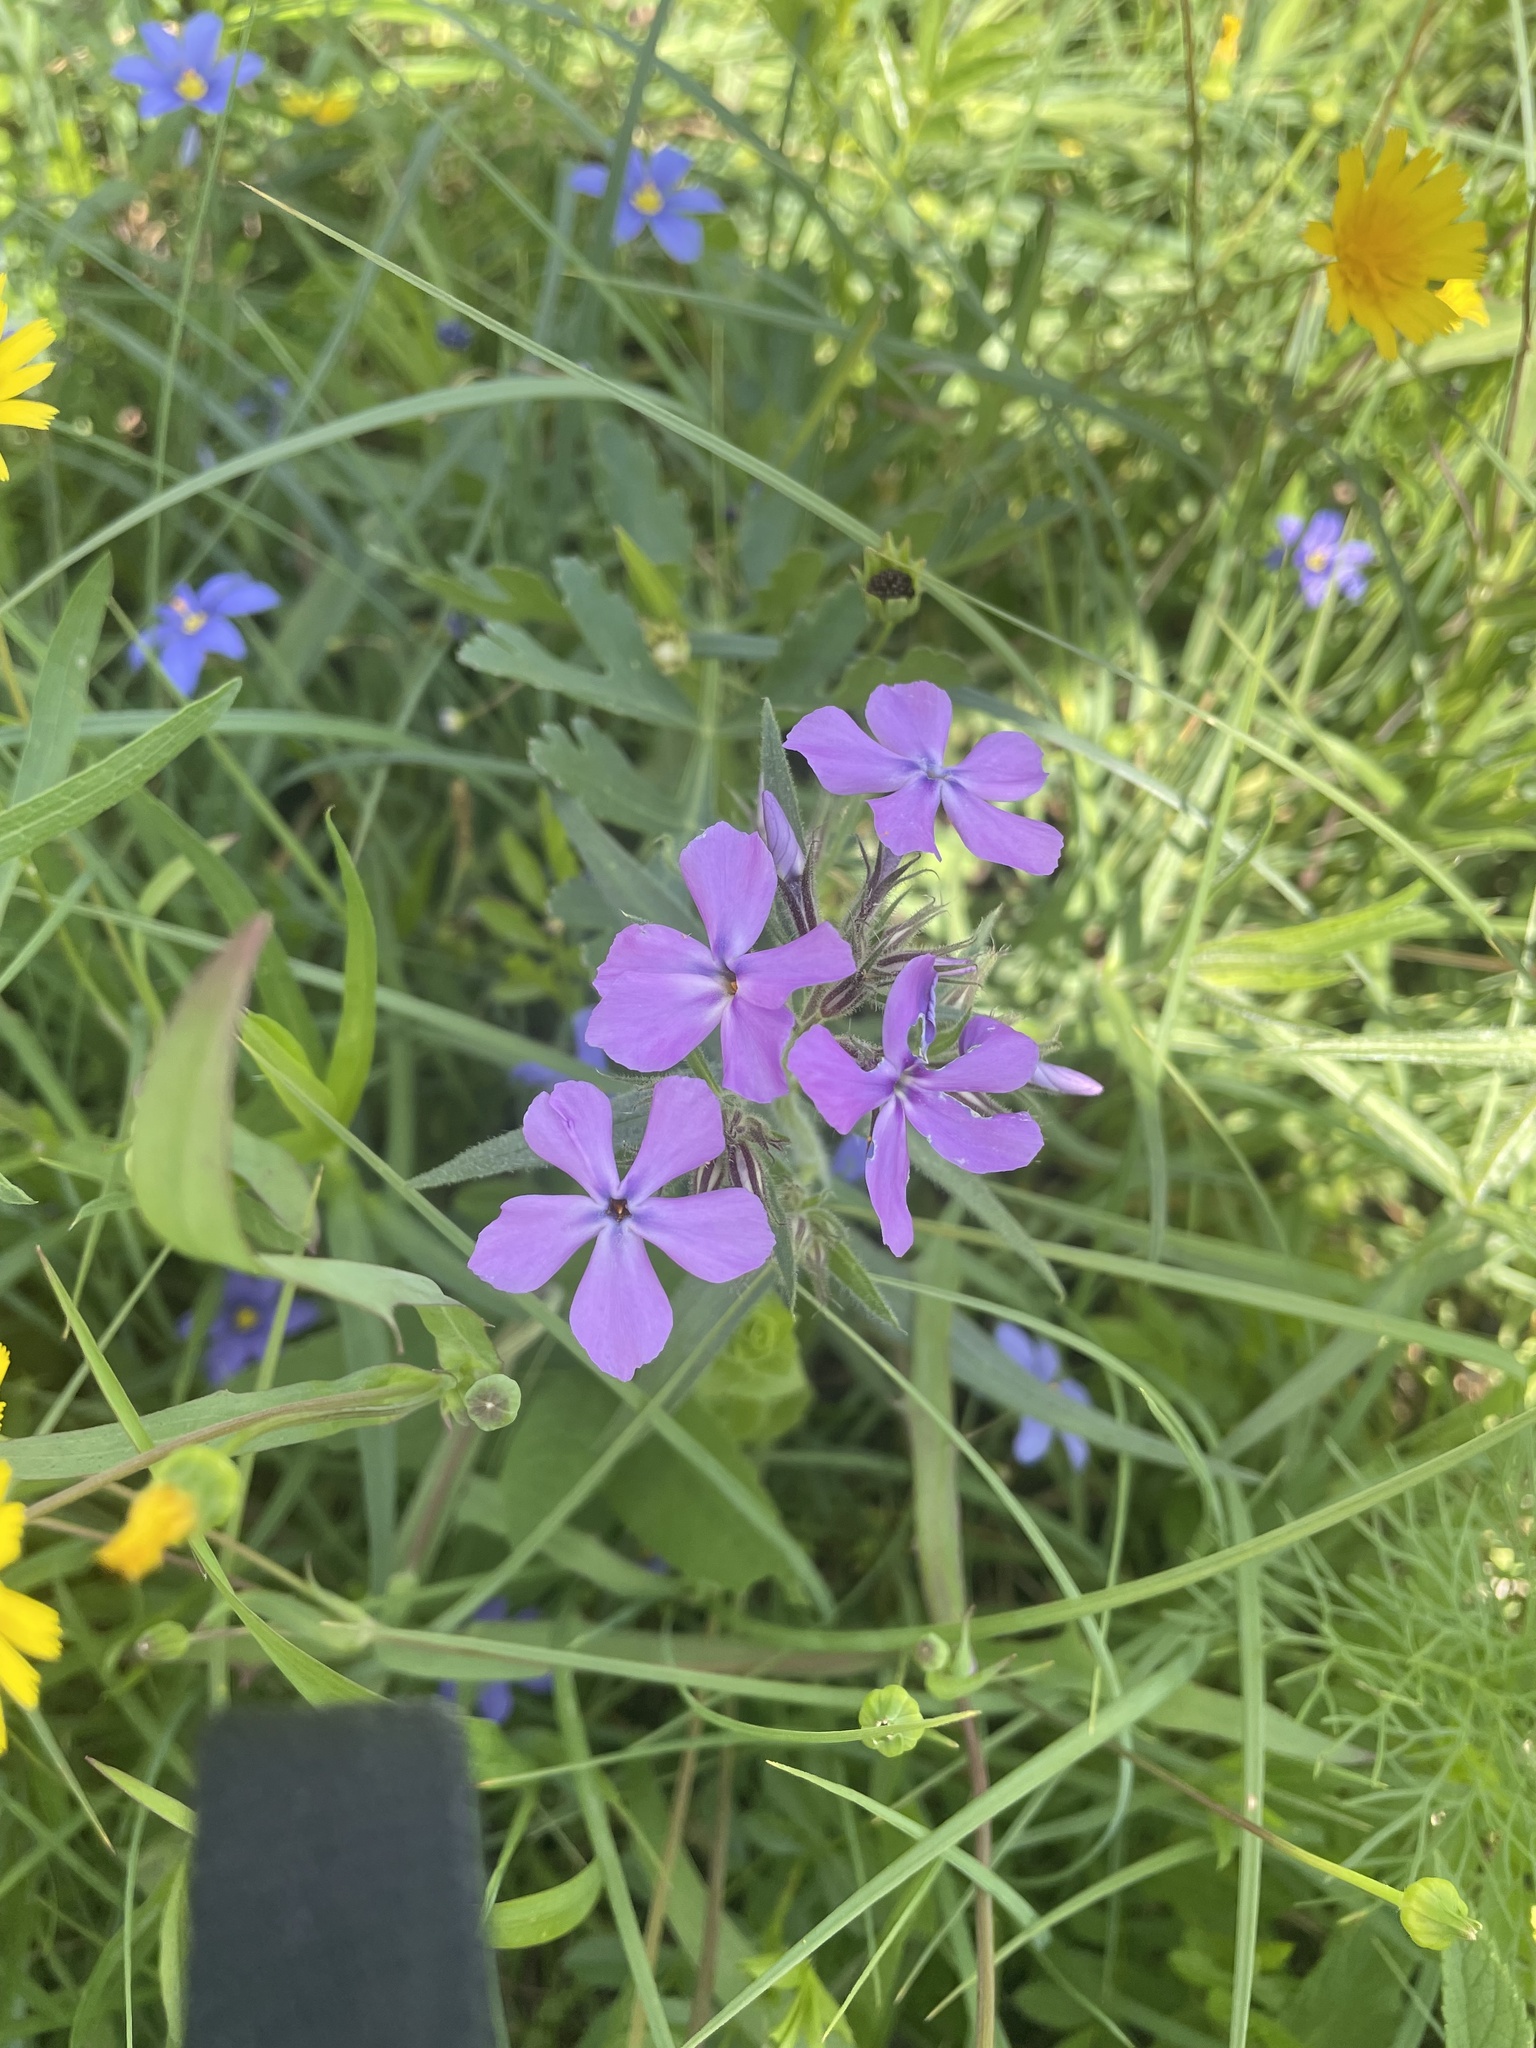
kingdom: Plantae
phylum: Tracheophyta
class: Magnoliopsida
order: Ericales
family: Polemoniaceae
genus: Phlox
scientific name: Phlox pilosa
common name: Prairie phlox
